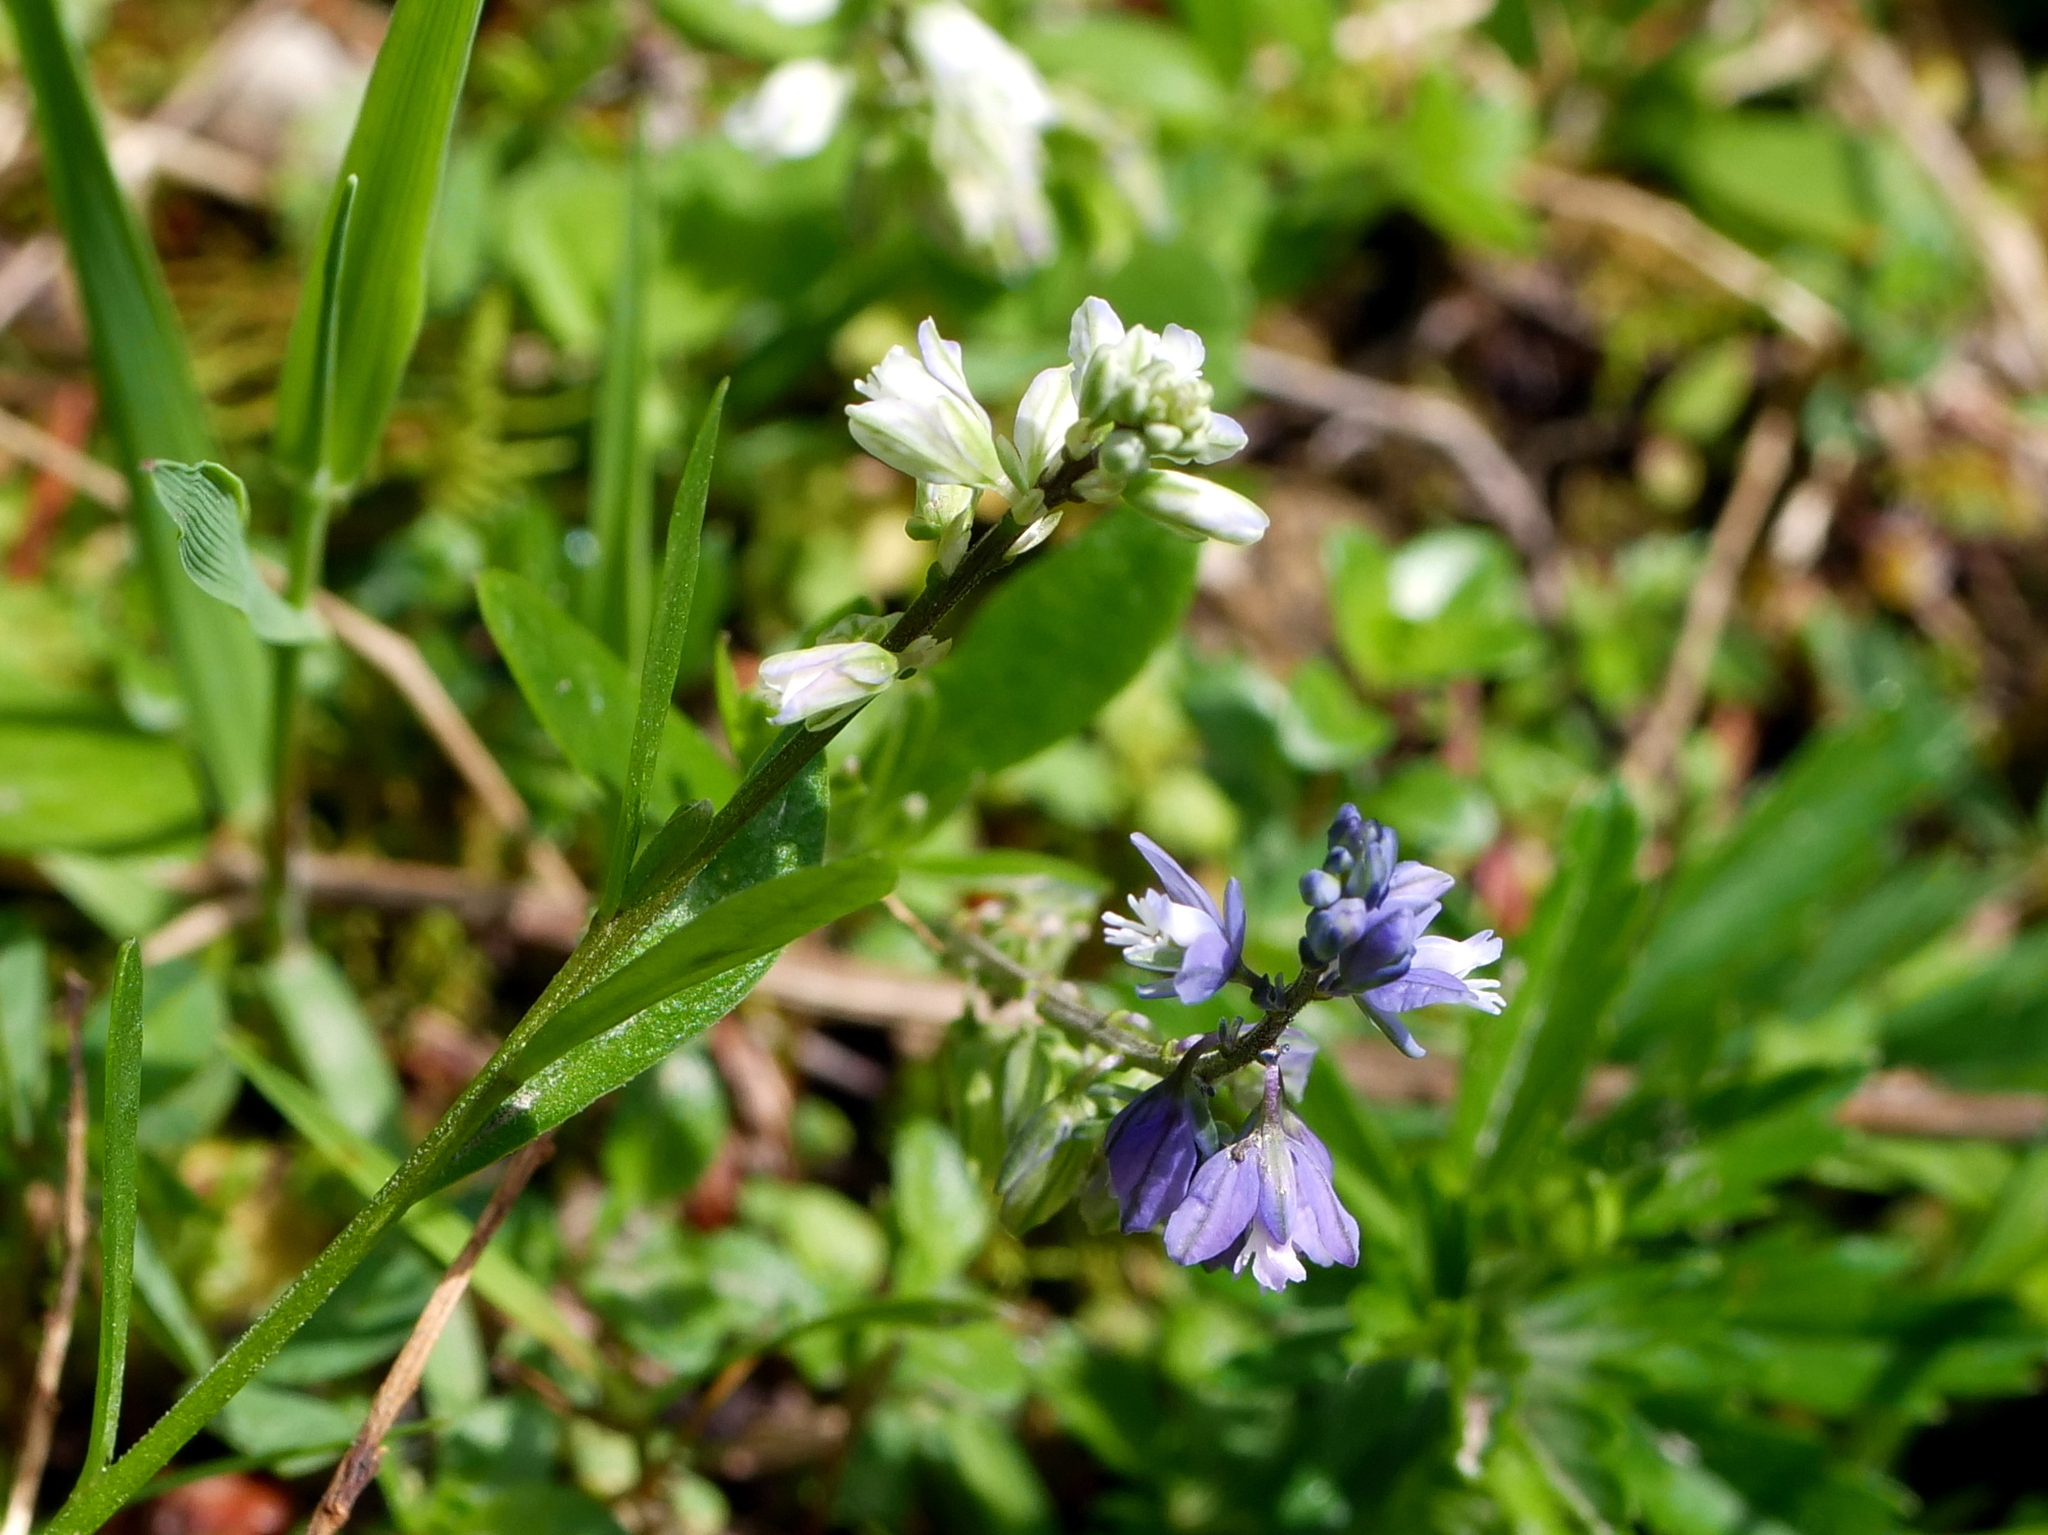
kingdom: Plantae
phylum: Tracheophyta
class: Magnoliopsida
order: Fabales
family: Polygalaceae
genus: Polygala
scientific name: Polygala amarella
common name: Dwarf milkwort
